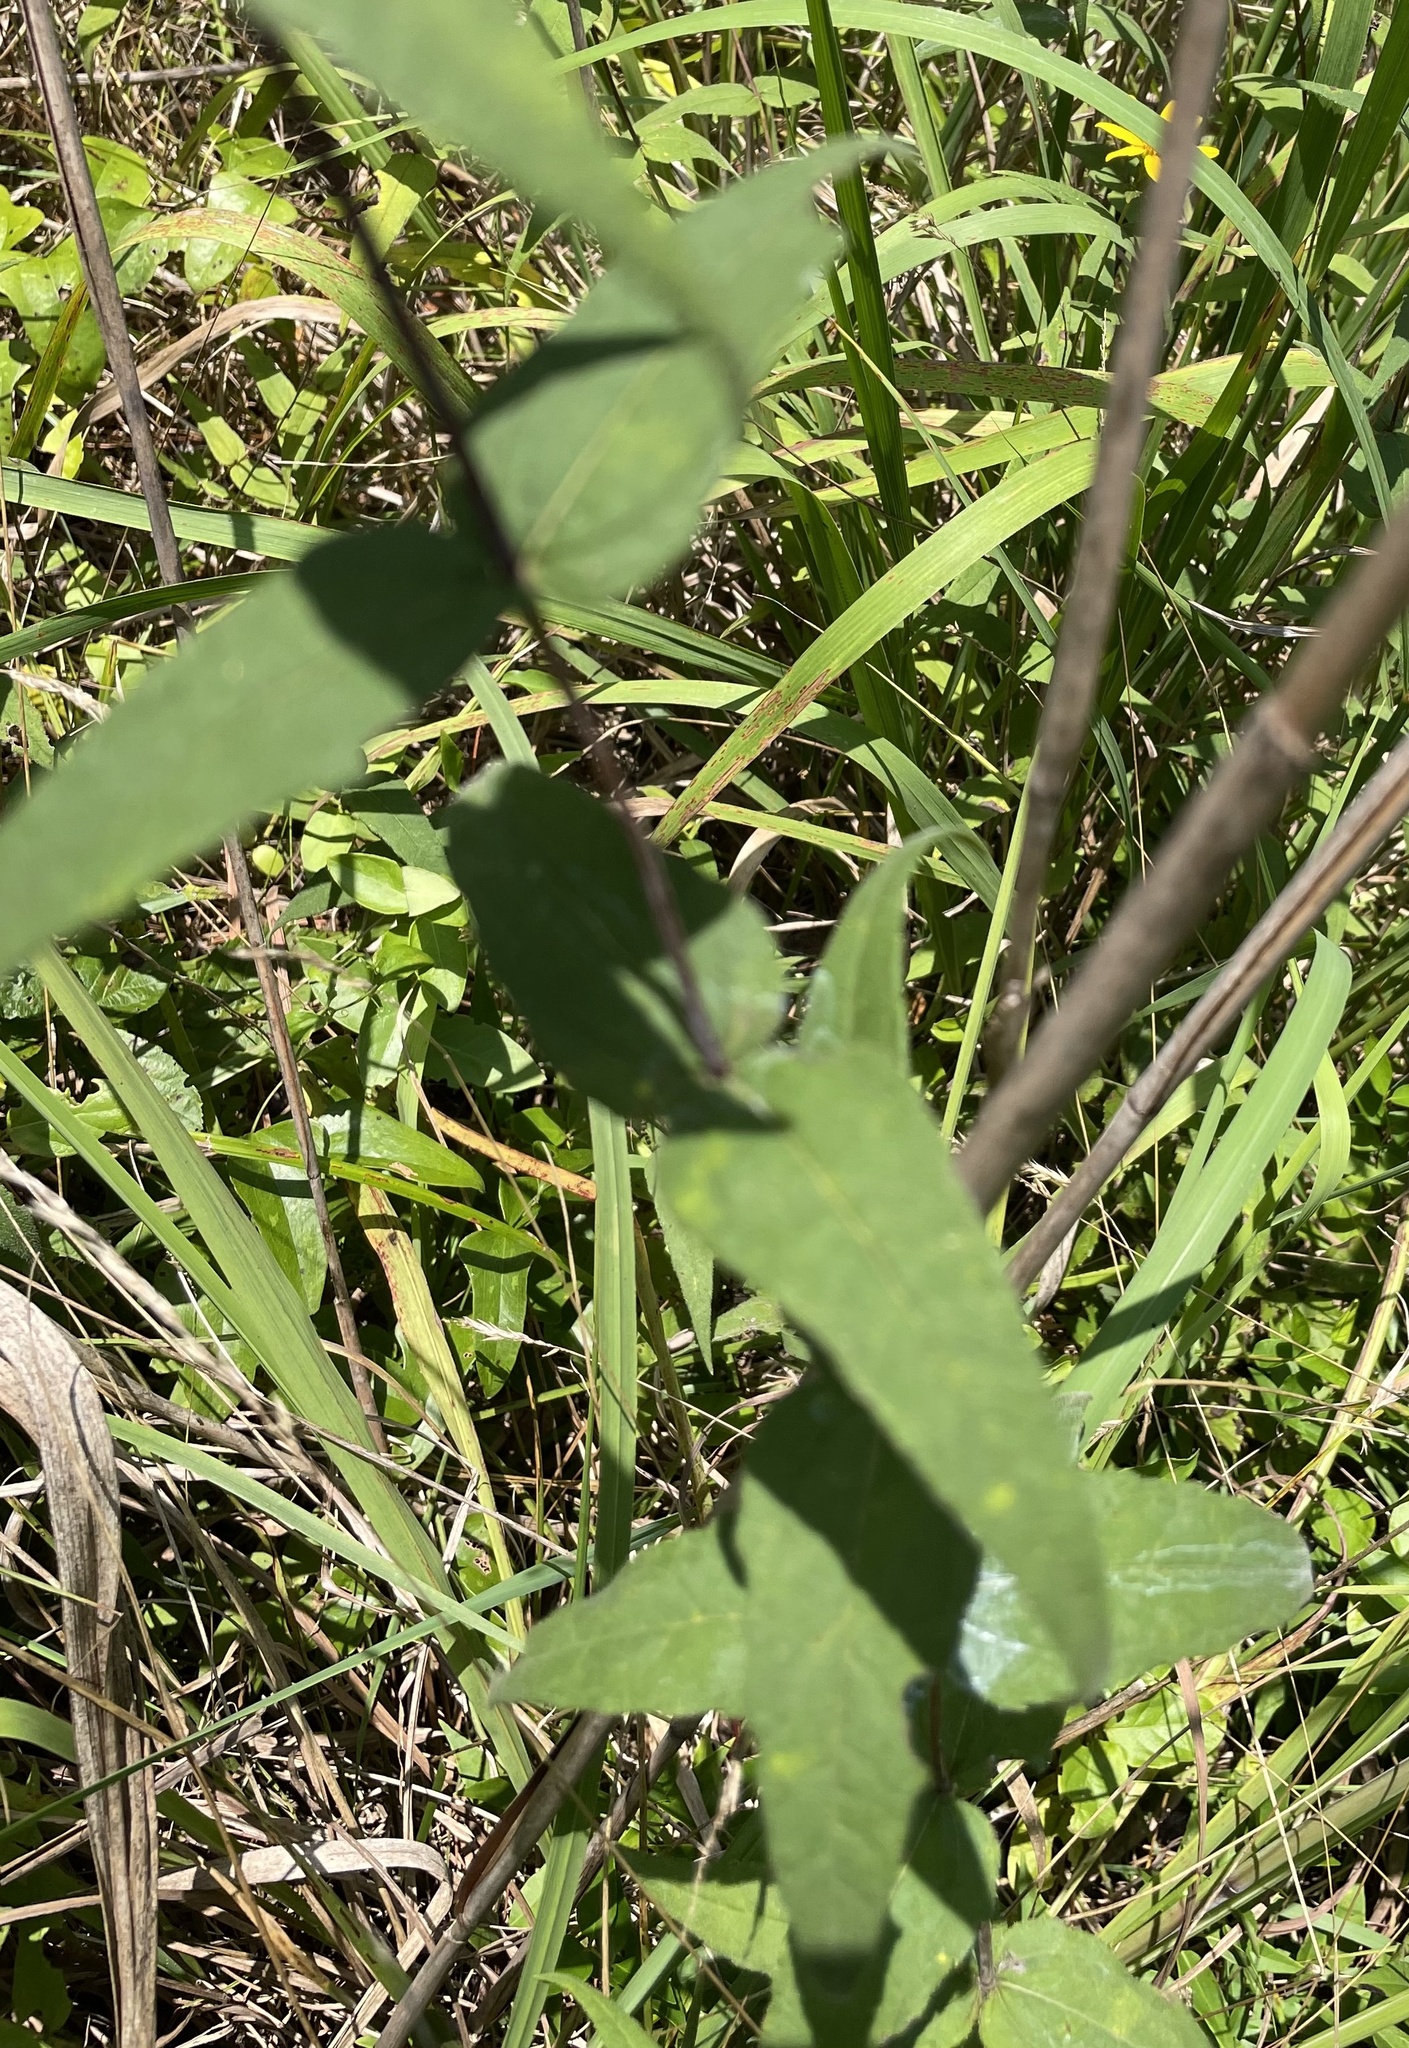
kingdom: Plantae
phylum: Tracheophyta
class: Magnoliopsida
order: Asterales
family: Asteraceae
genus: Helianthus
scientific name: Helianthus divaricatus
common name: Divergent sunflower
